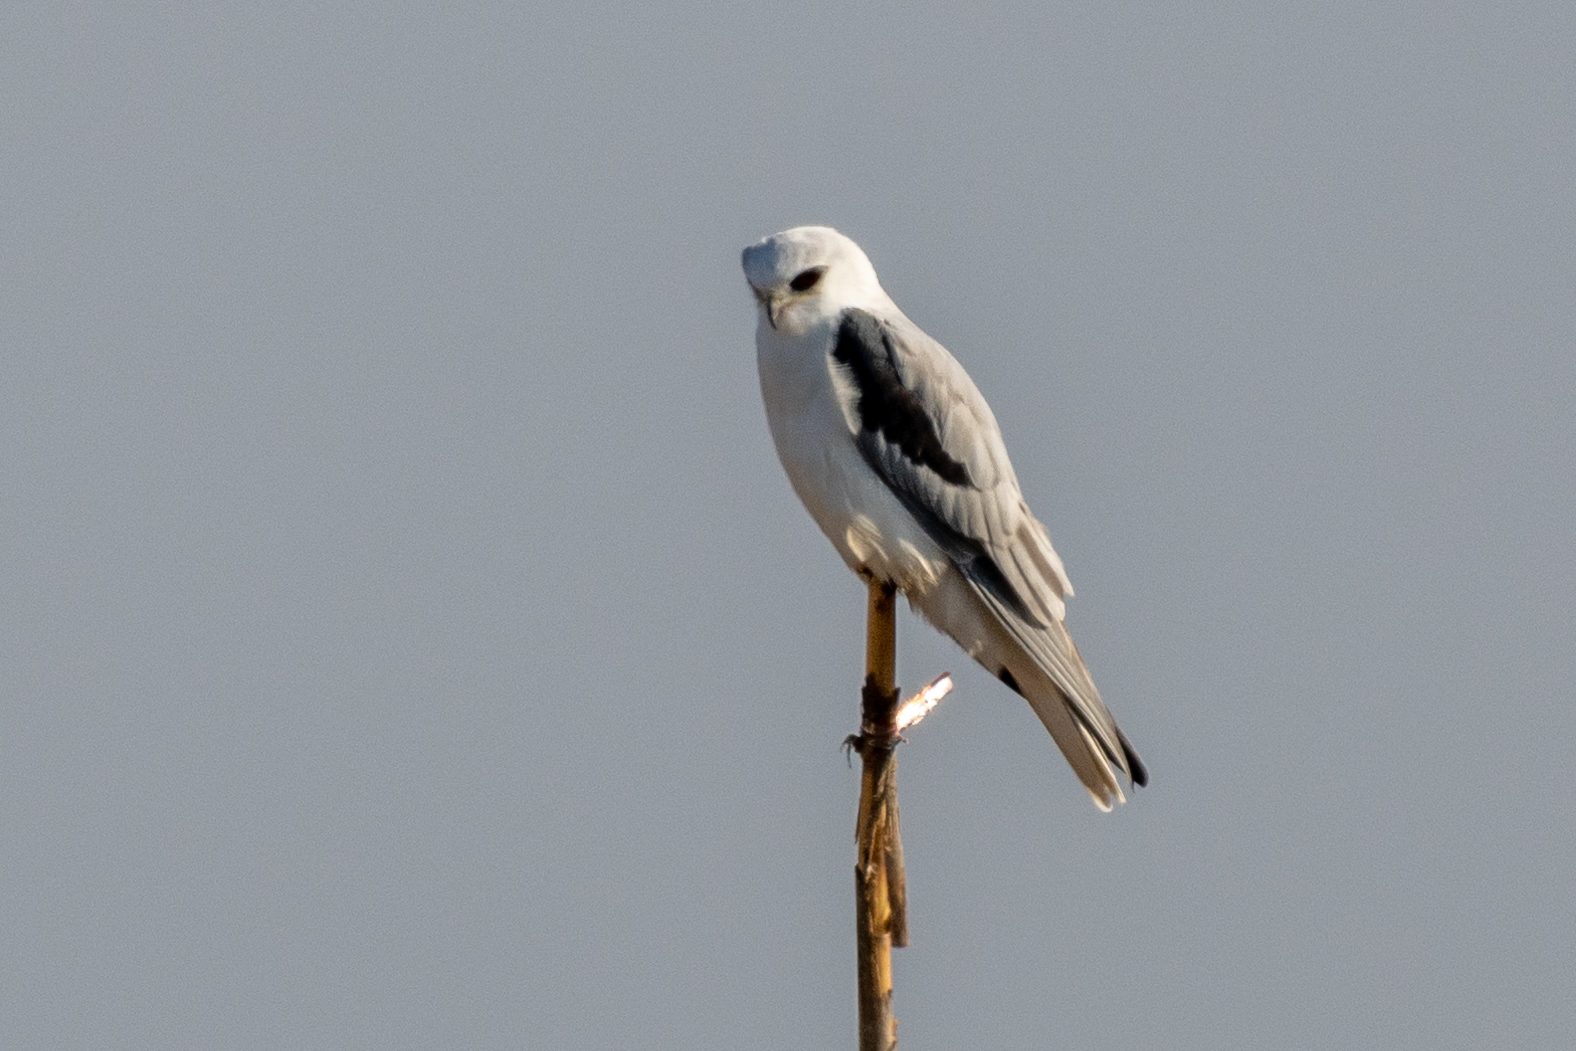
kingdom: Animalia
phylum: Chordata
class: Aves
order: Accipitriformes
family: Accipitridae
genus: Elanus
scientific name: Elanus leucurus
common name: White-tailed kite
